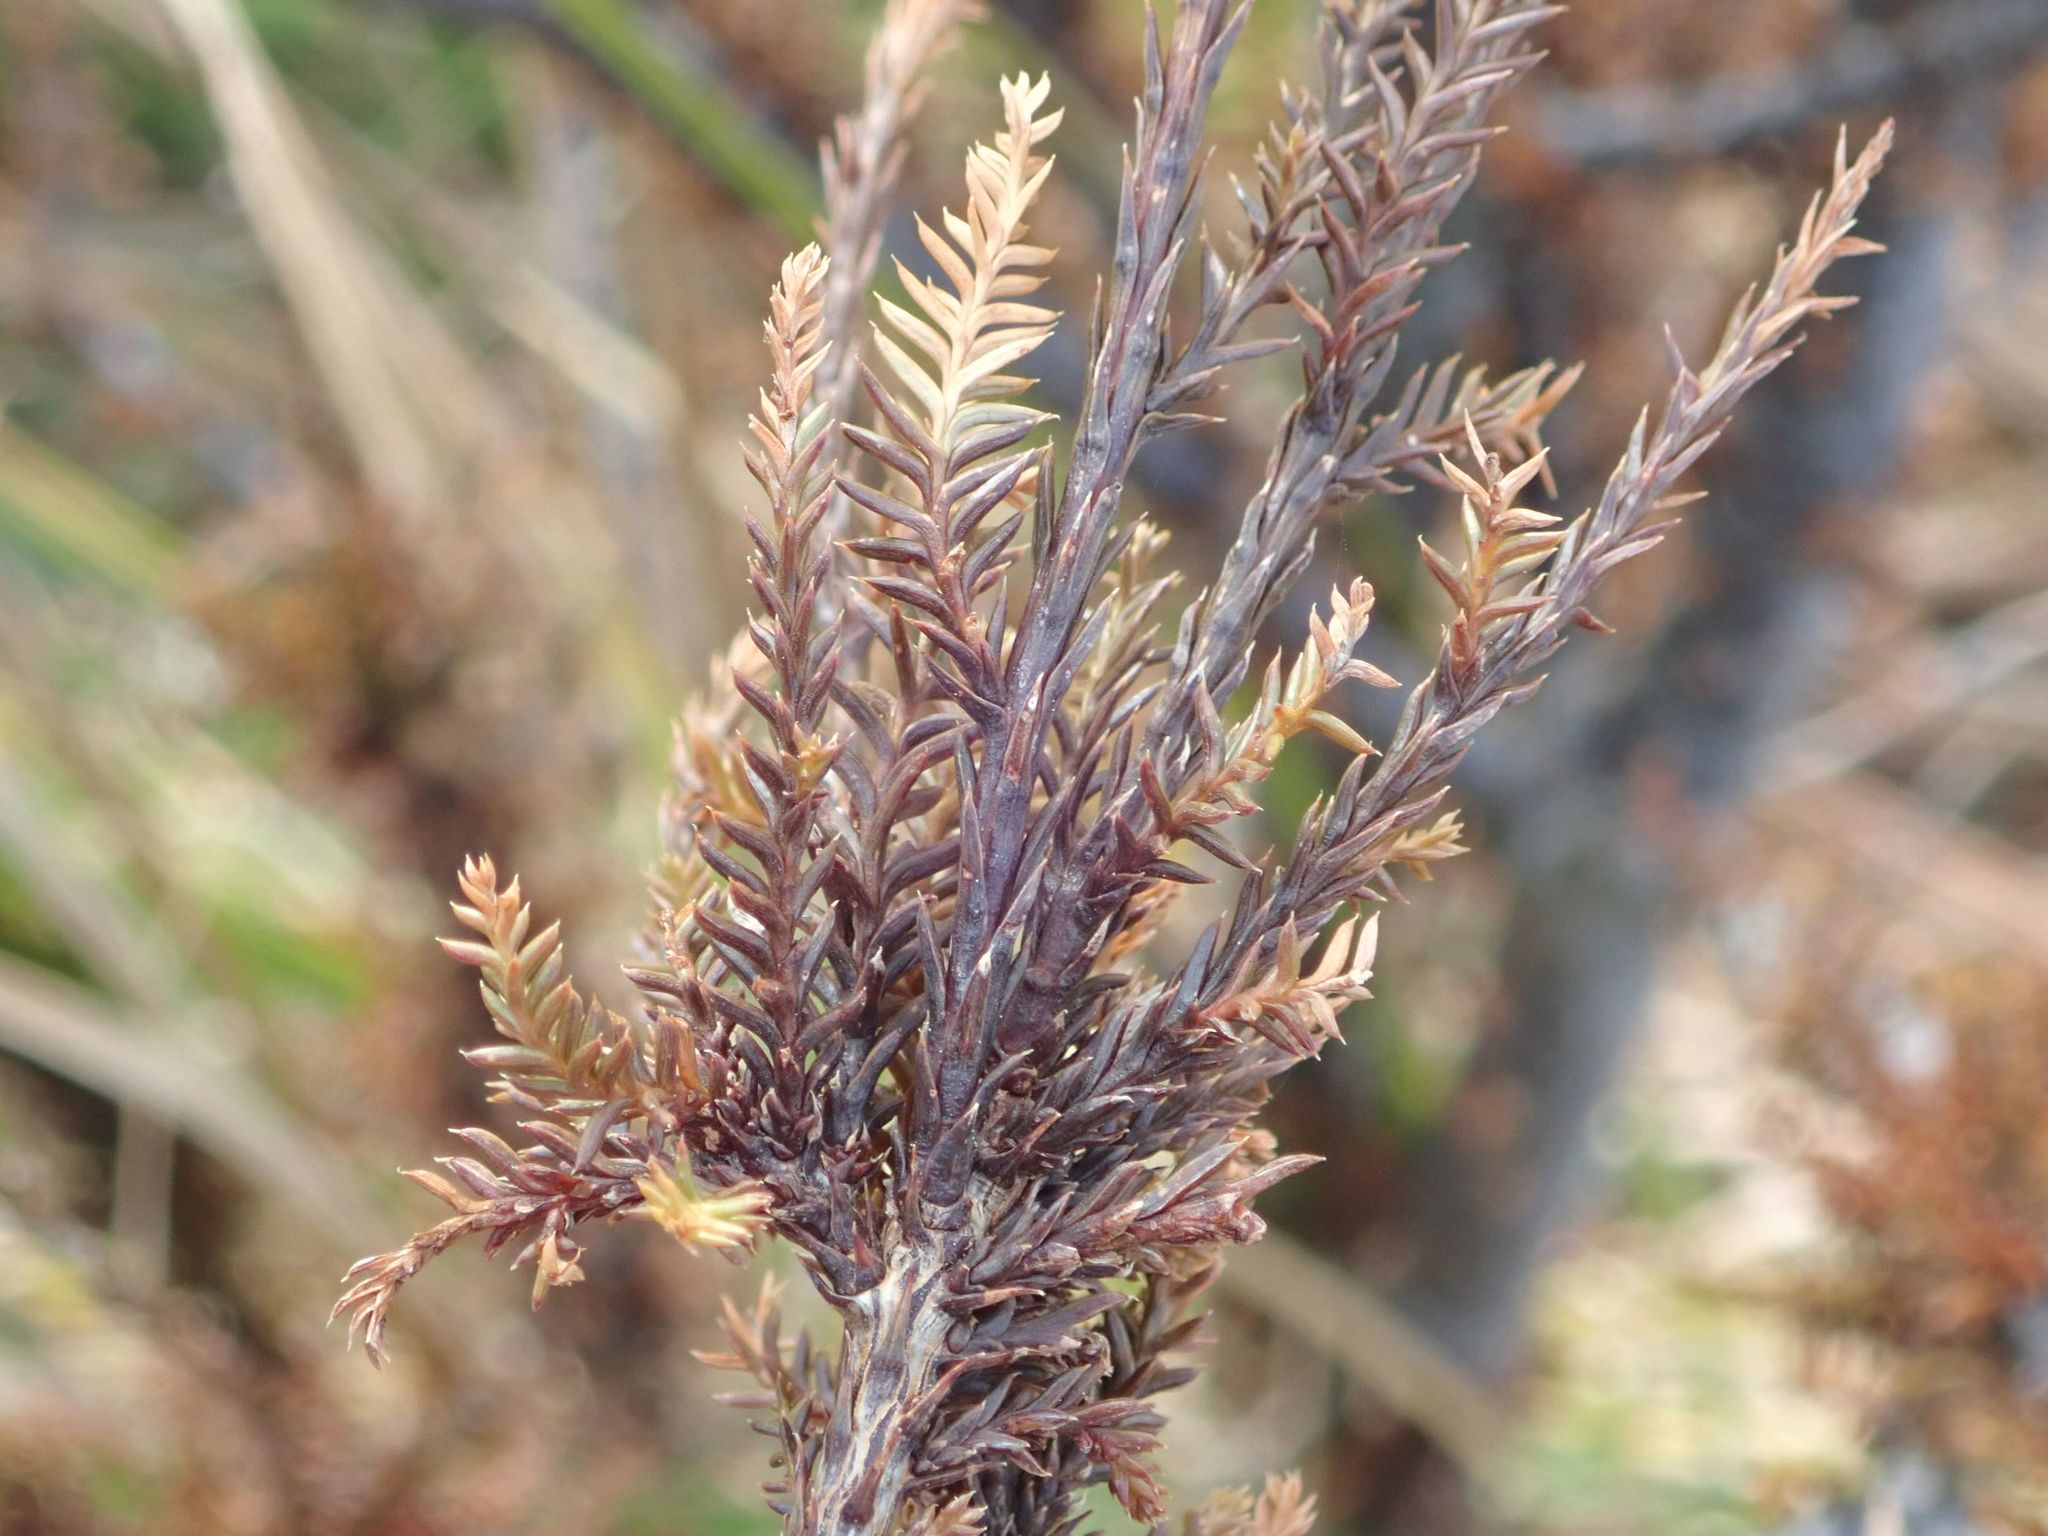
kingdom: Plantae
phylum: Tracheophyta
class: Pinopsida
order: Pinales
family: Podocarpaceae
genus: Dacrycarpus
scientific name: Dacrycarpus dacrydioides
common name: White pine
